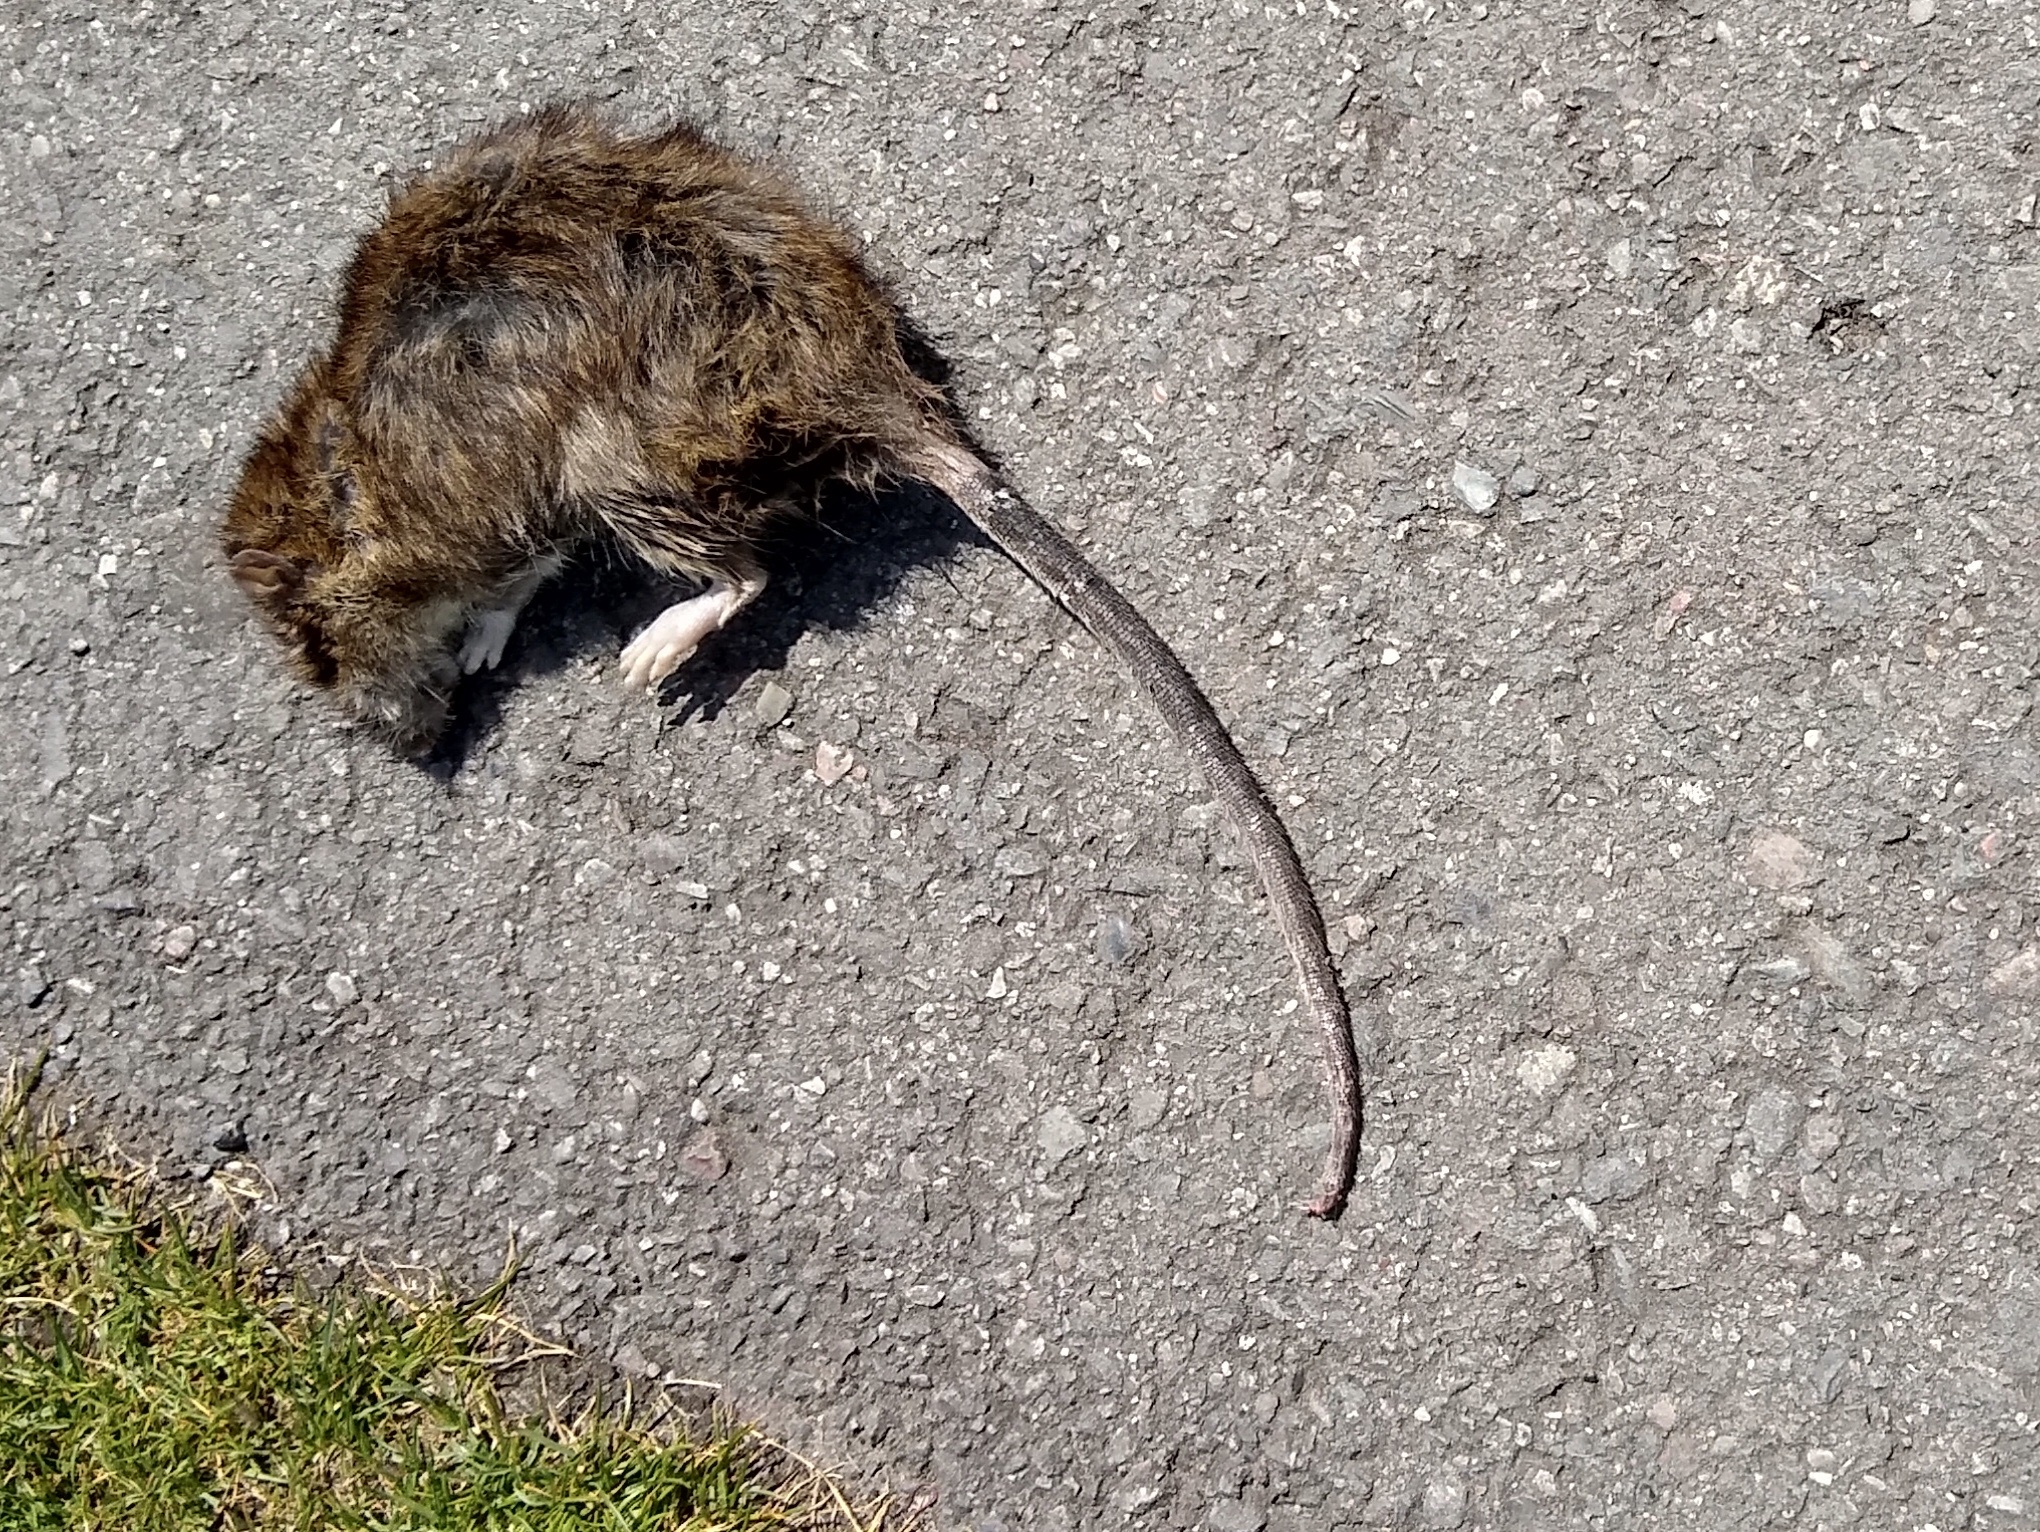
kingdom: Animalia
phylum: Chordata
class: Mammalia
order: Rodentia
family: Muridae
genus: Rattus
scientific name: Rattus norvegicus
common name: Brown rat
